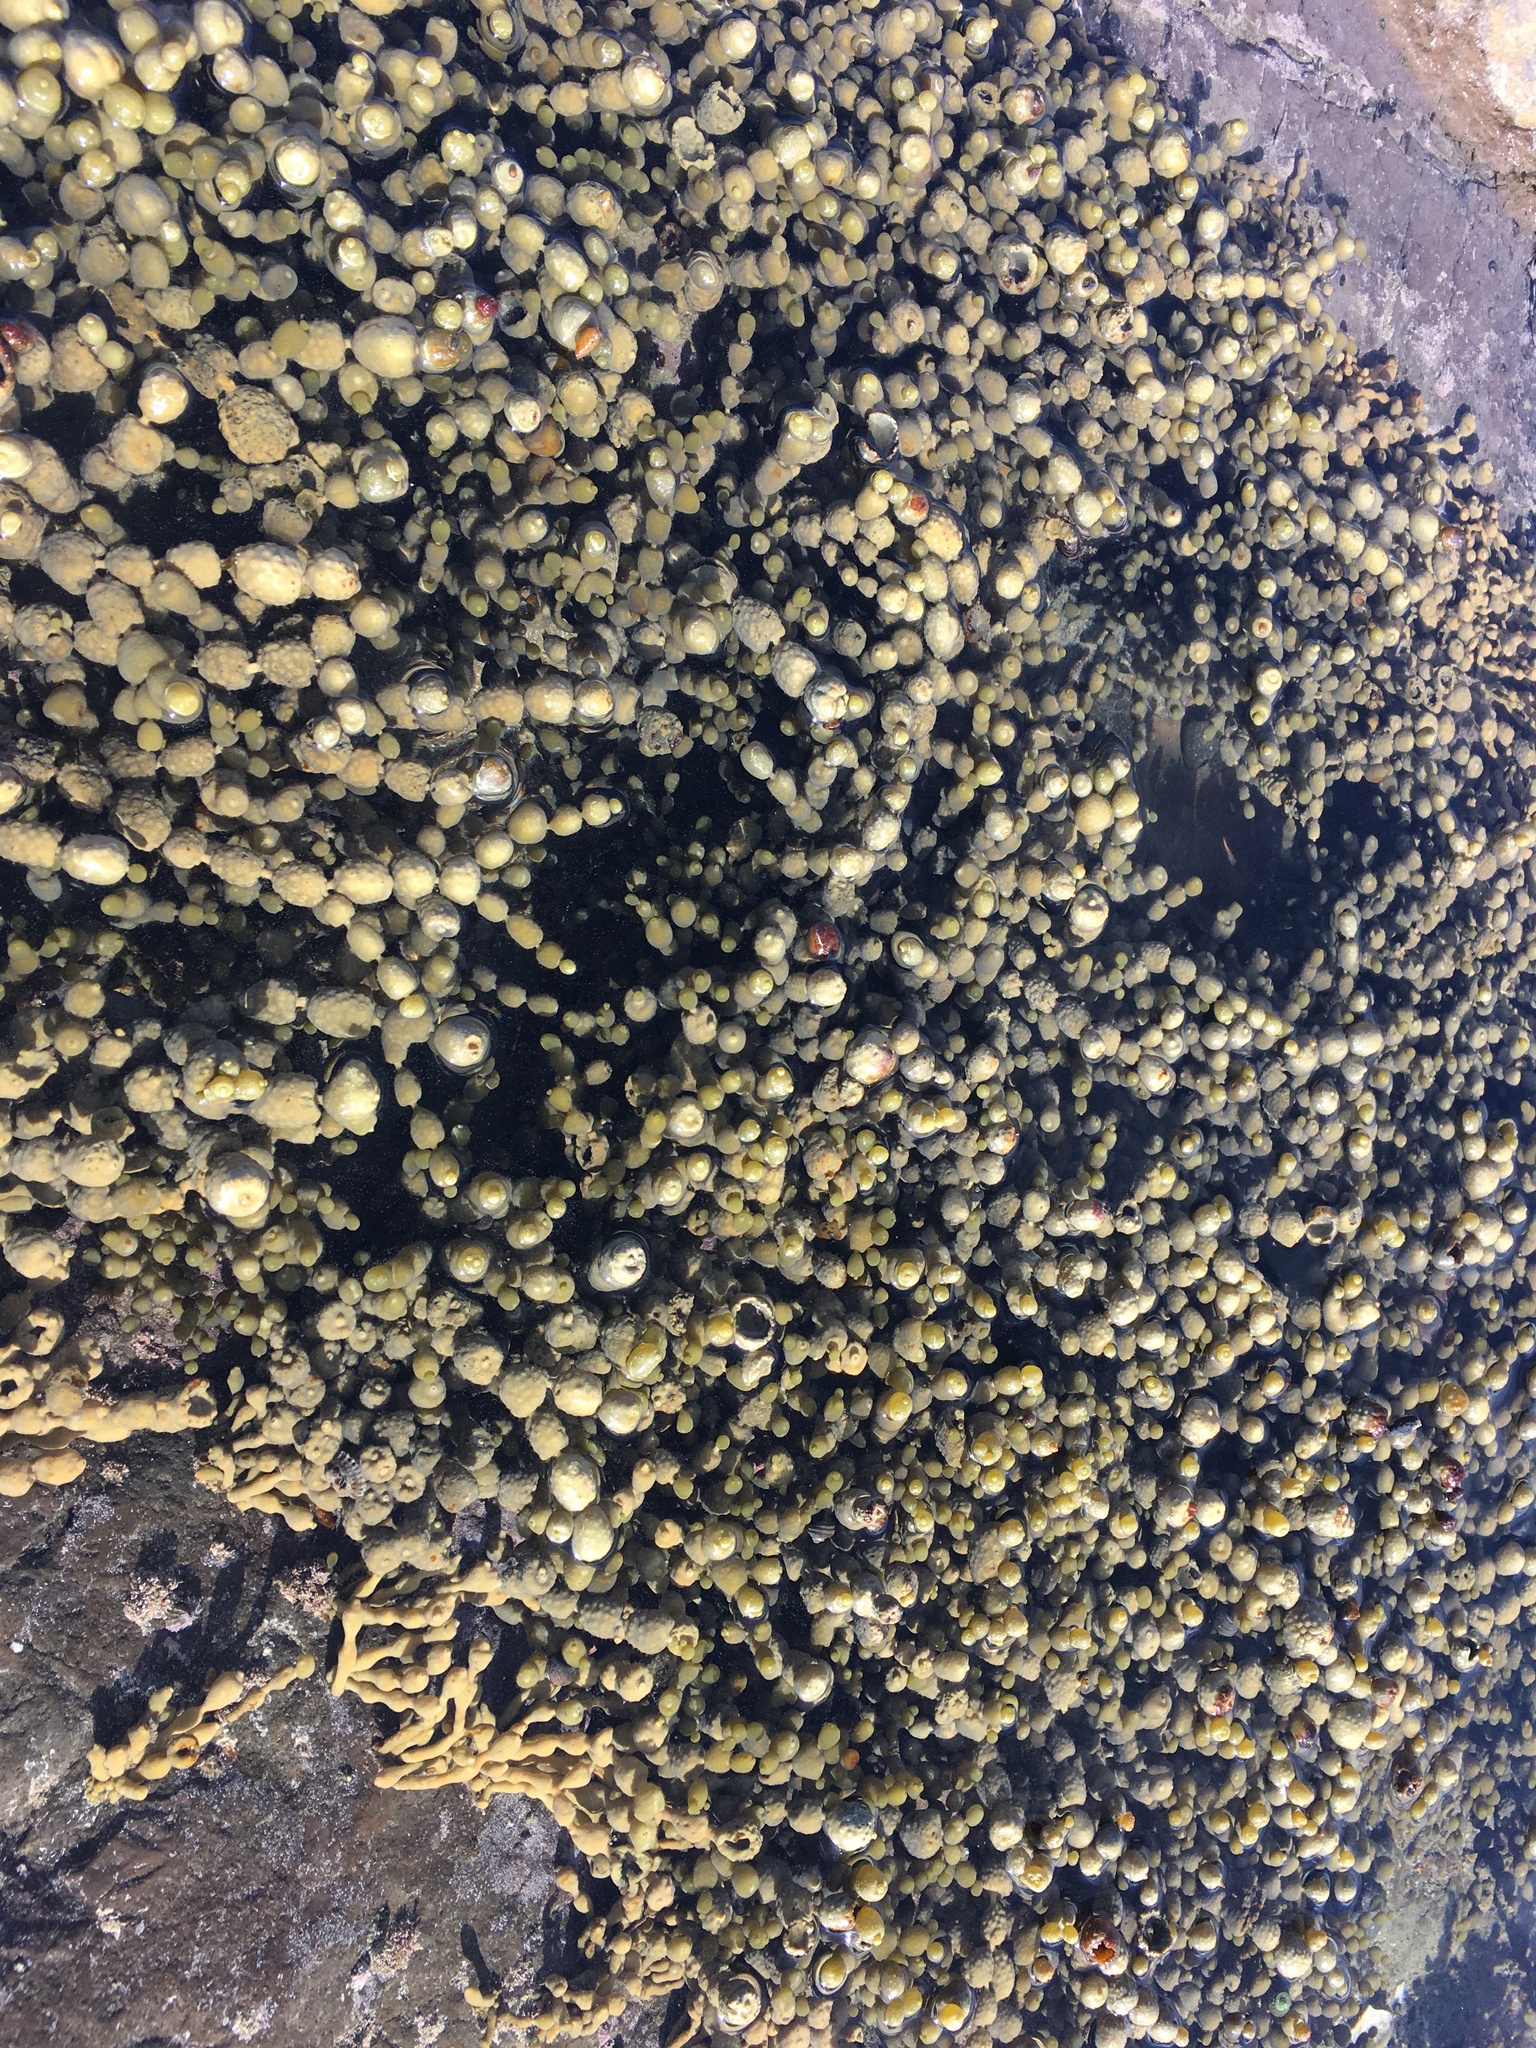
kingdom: Chromista
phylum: Ochrophyta
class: Phaeophyceae
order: Fucales
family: Hormosiraceae
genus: Hormosira
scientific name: Hormosira banksii
